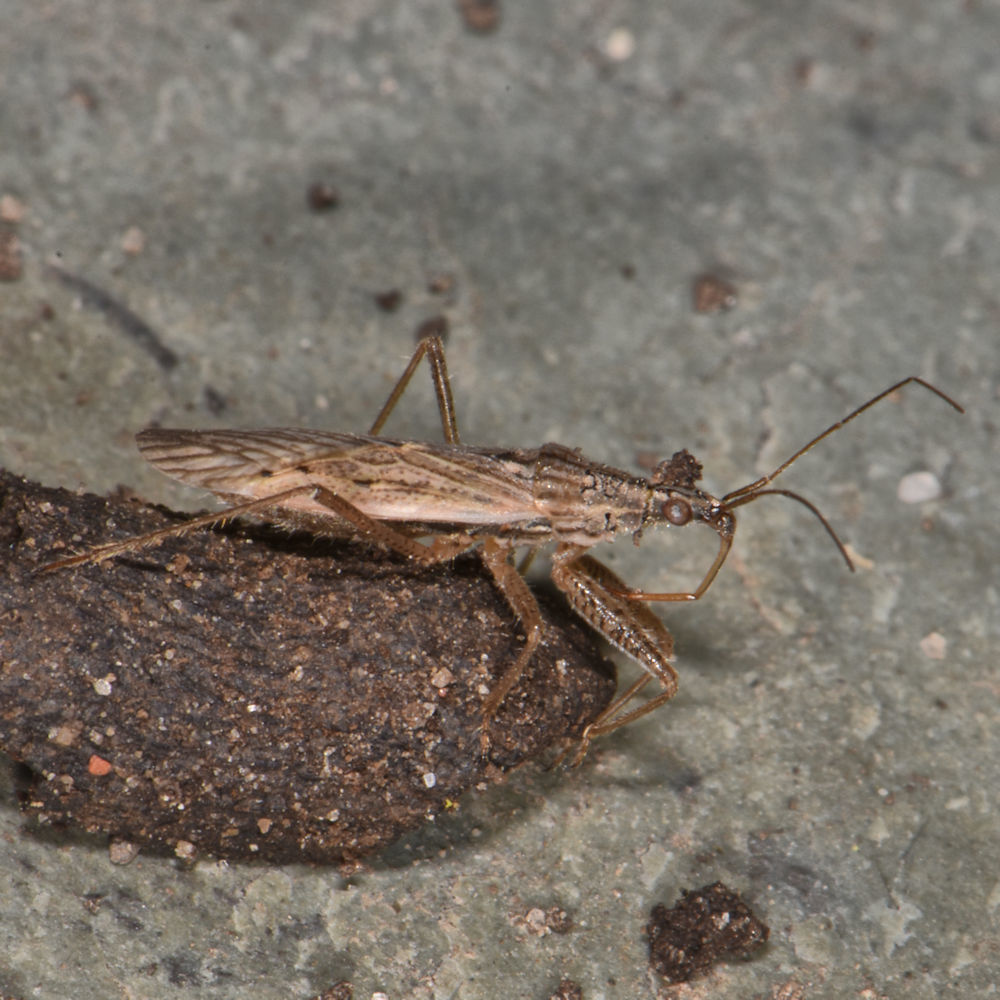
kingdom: Animalia
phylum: Arthropoda
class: Insecta
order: Hemiptera
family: Nabidae
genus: Nabis
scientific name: Nabis americoferus
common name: Common damsel bug
